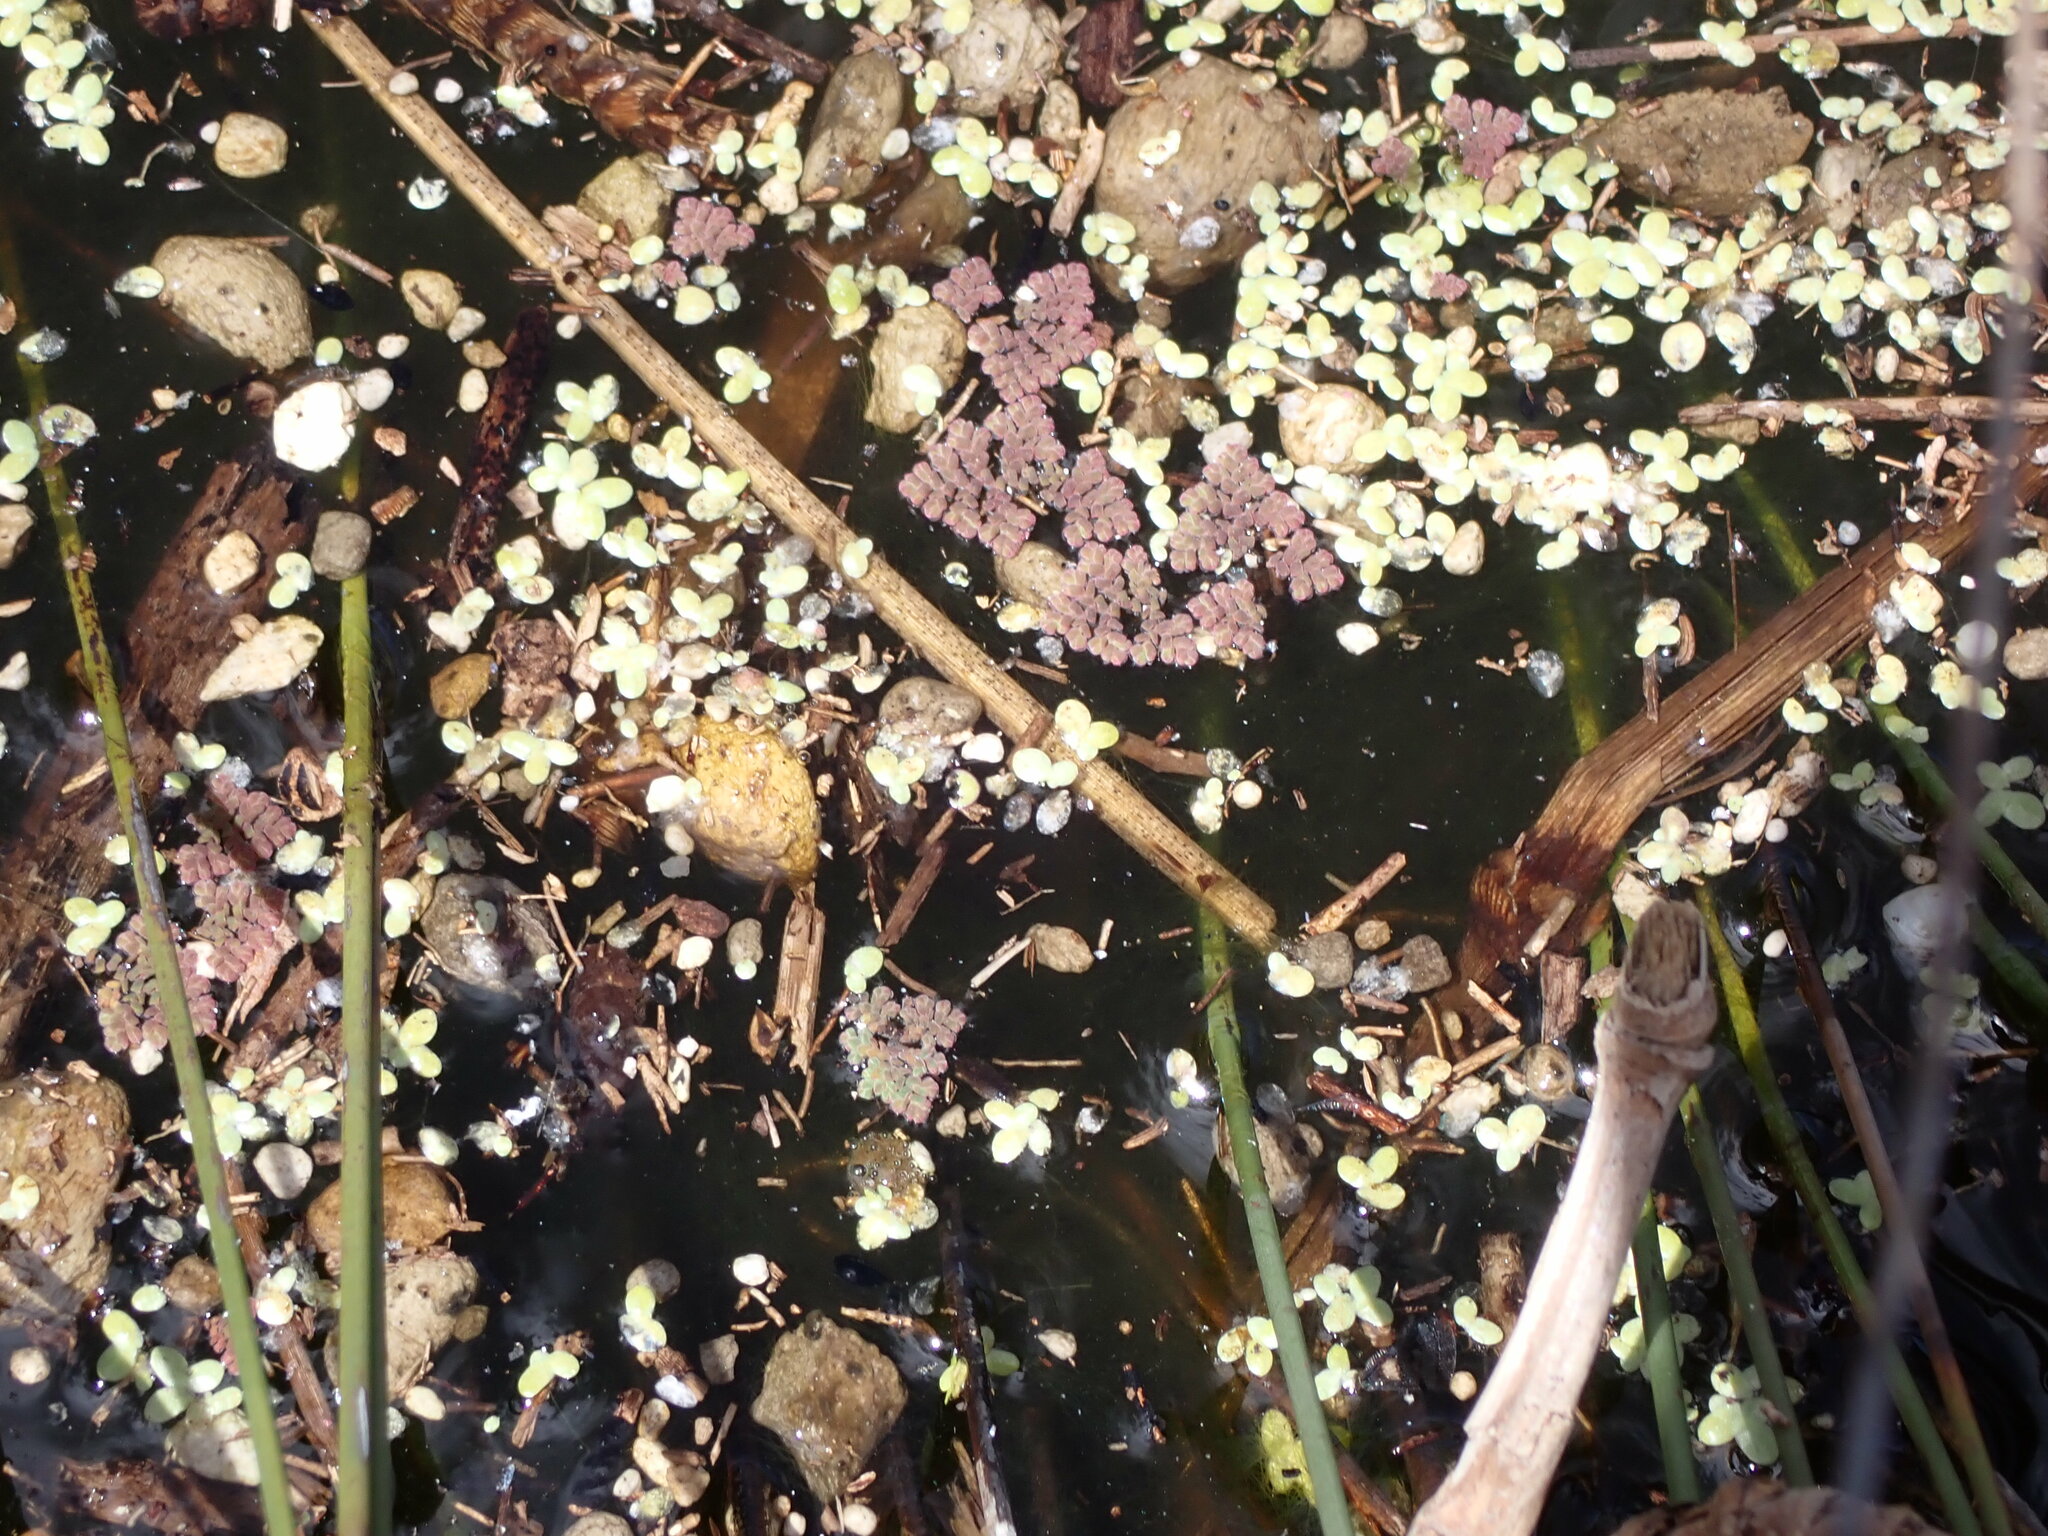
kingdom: Plantae
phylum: Tracheophyta
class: Polypodiopsida
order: Salviniales
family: Salviniaceae
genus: Azolla
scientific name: Azolla pinnata
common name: Ferny azolla
